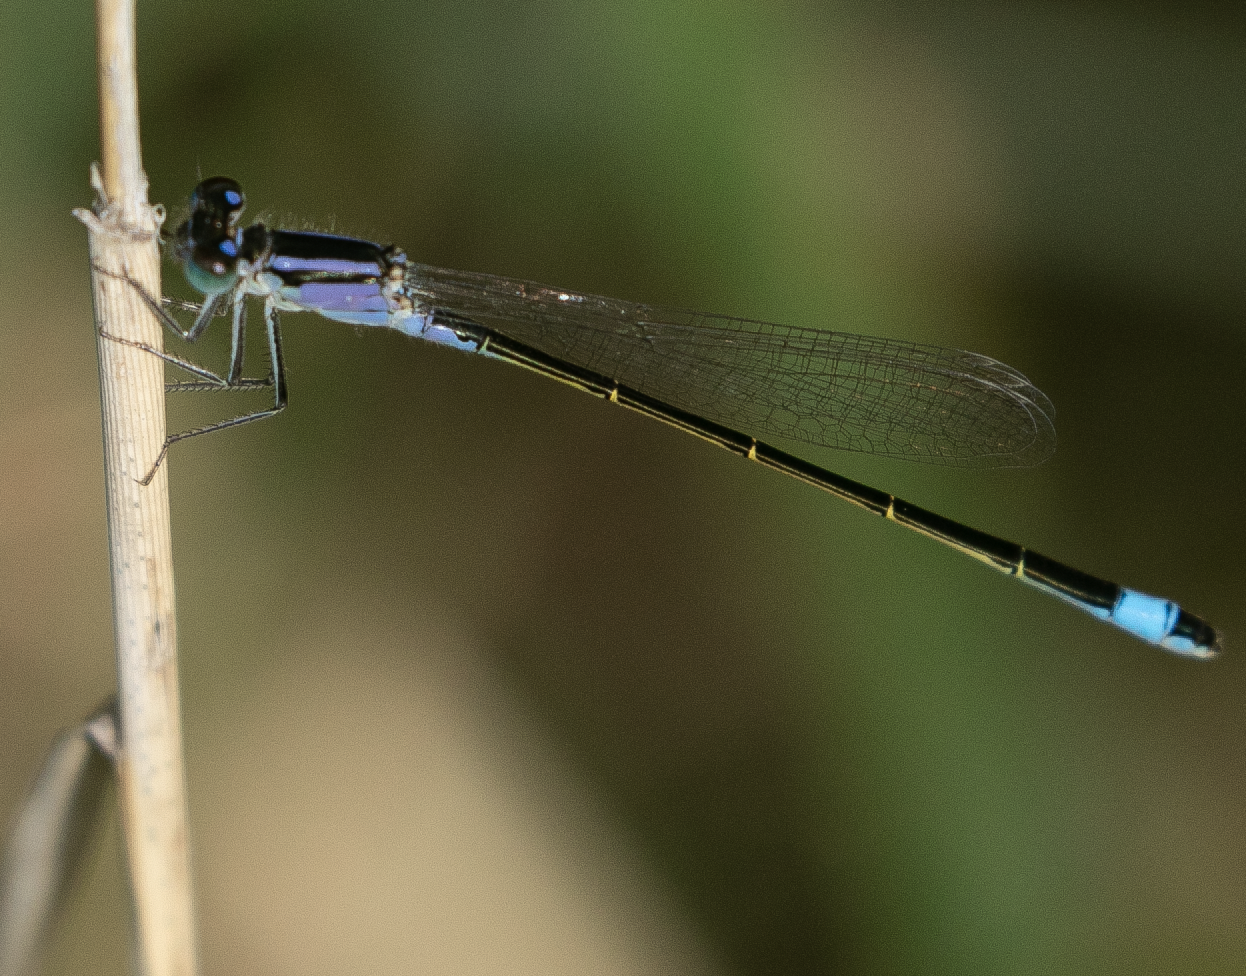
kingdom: Animalia
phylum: Arthropoda
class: Insecta
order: Odonata
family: Coenagrionidae
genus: Ischnura
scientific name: Ischnura elegans
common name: Blue-tailed damselfly
